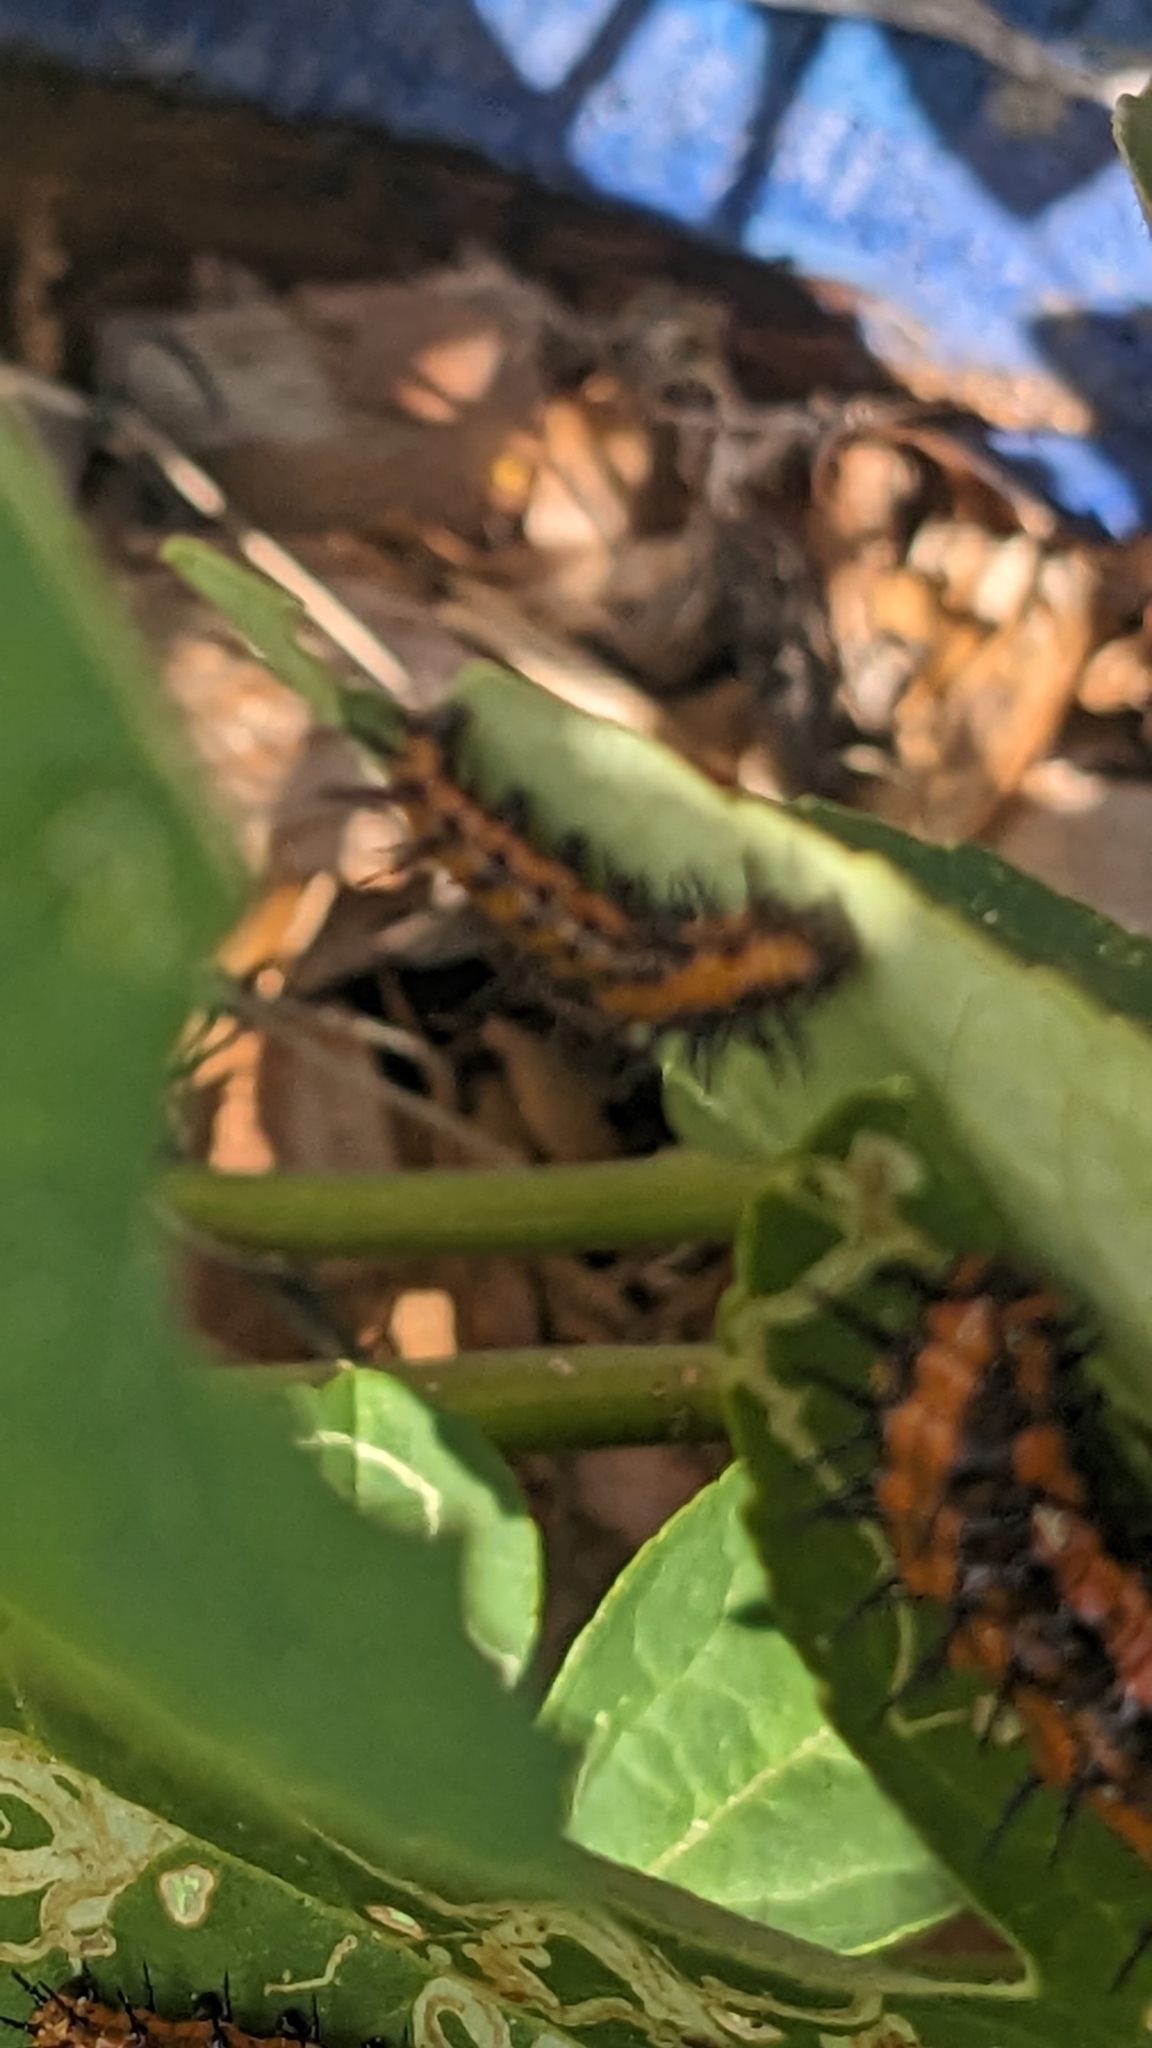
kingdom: Animalia
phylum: Arthropoda
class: Insecta
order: Lepidoptera
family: Nymphalidae
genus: Dione
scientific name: Dione vanillae
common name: Gulf fritillary
